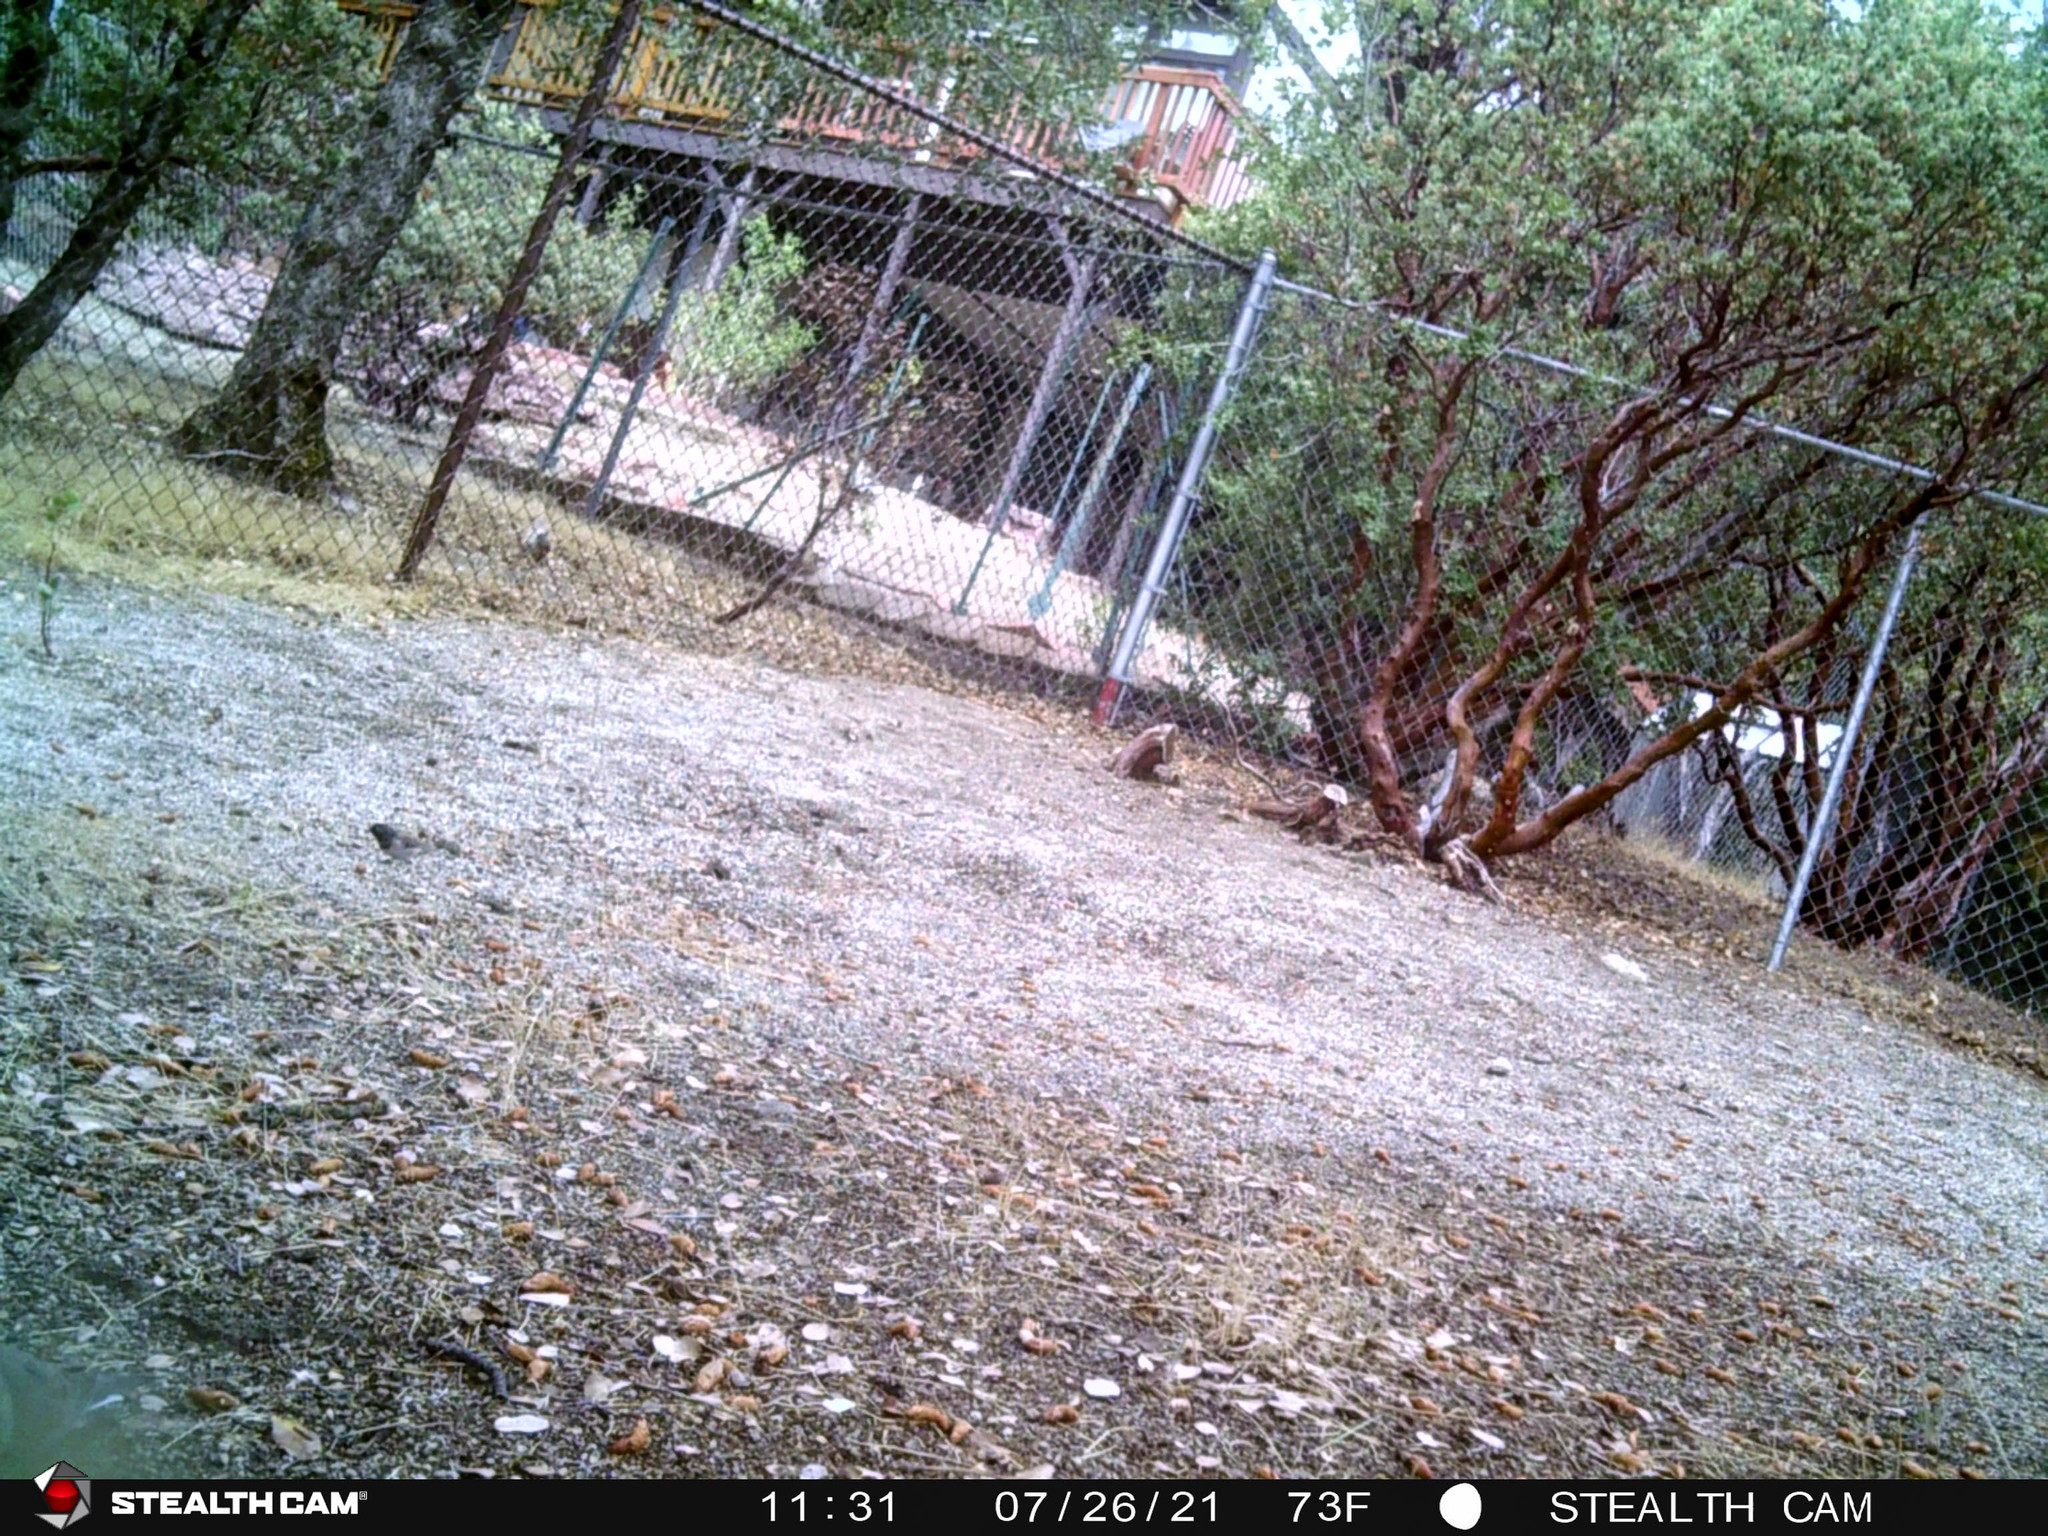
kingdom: Animalia
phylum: Chordata
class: Aves
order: Passeriformes
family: Passerellidae
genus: Junco
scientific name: Junco hyemalis
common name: Dark-eyed junco
